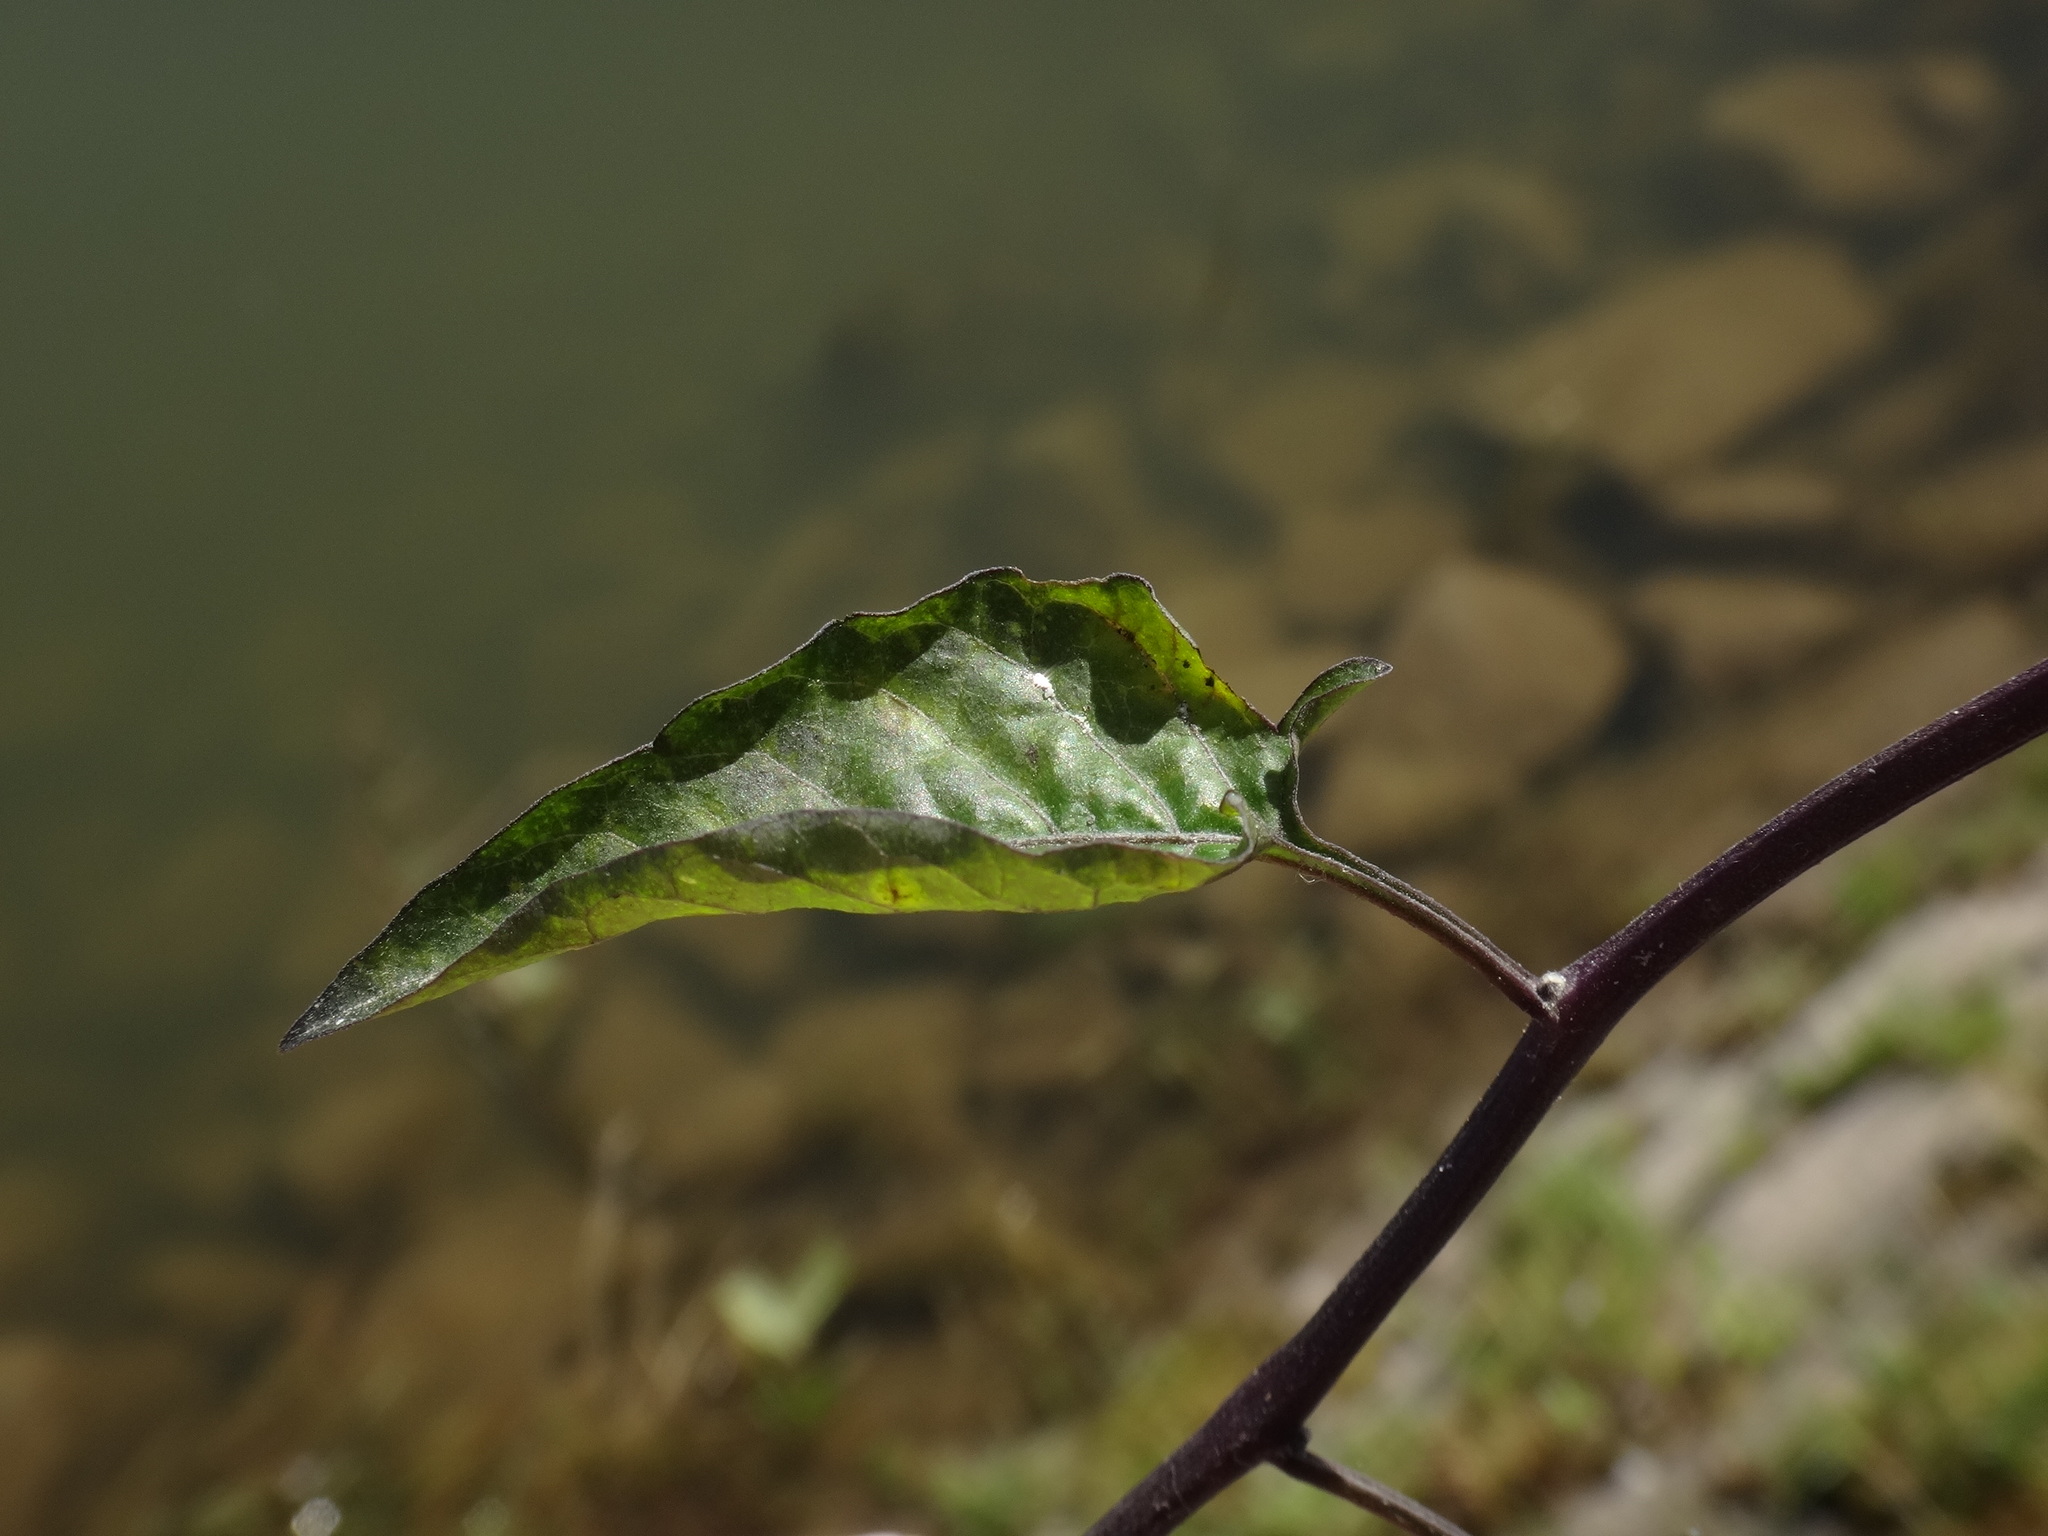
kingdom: Plantae
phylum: Tracheophyta
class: Magnoliopsida
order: Solanales
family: Solanaceae
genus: Solanum
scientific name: Solanum dulcamara
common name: Climbing nightshade
